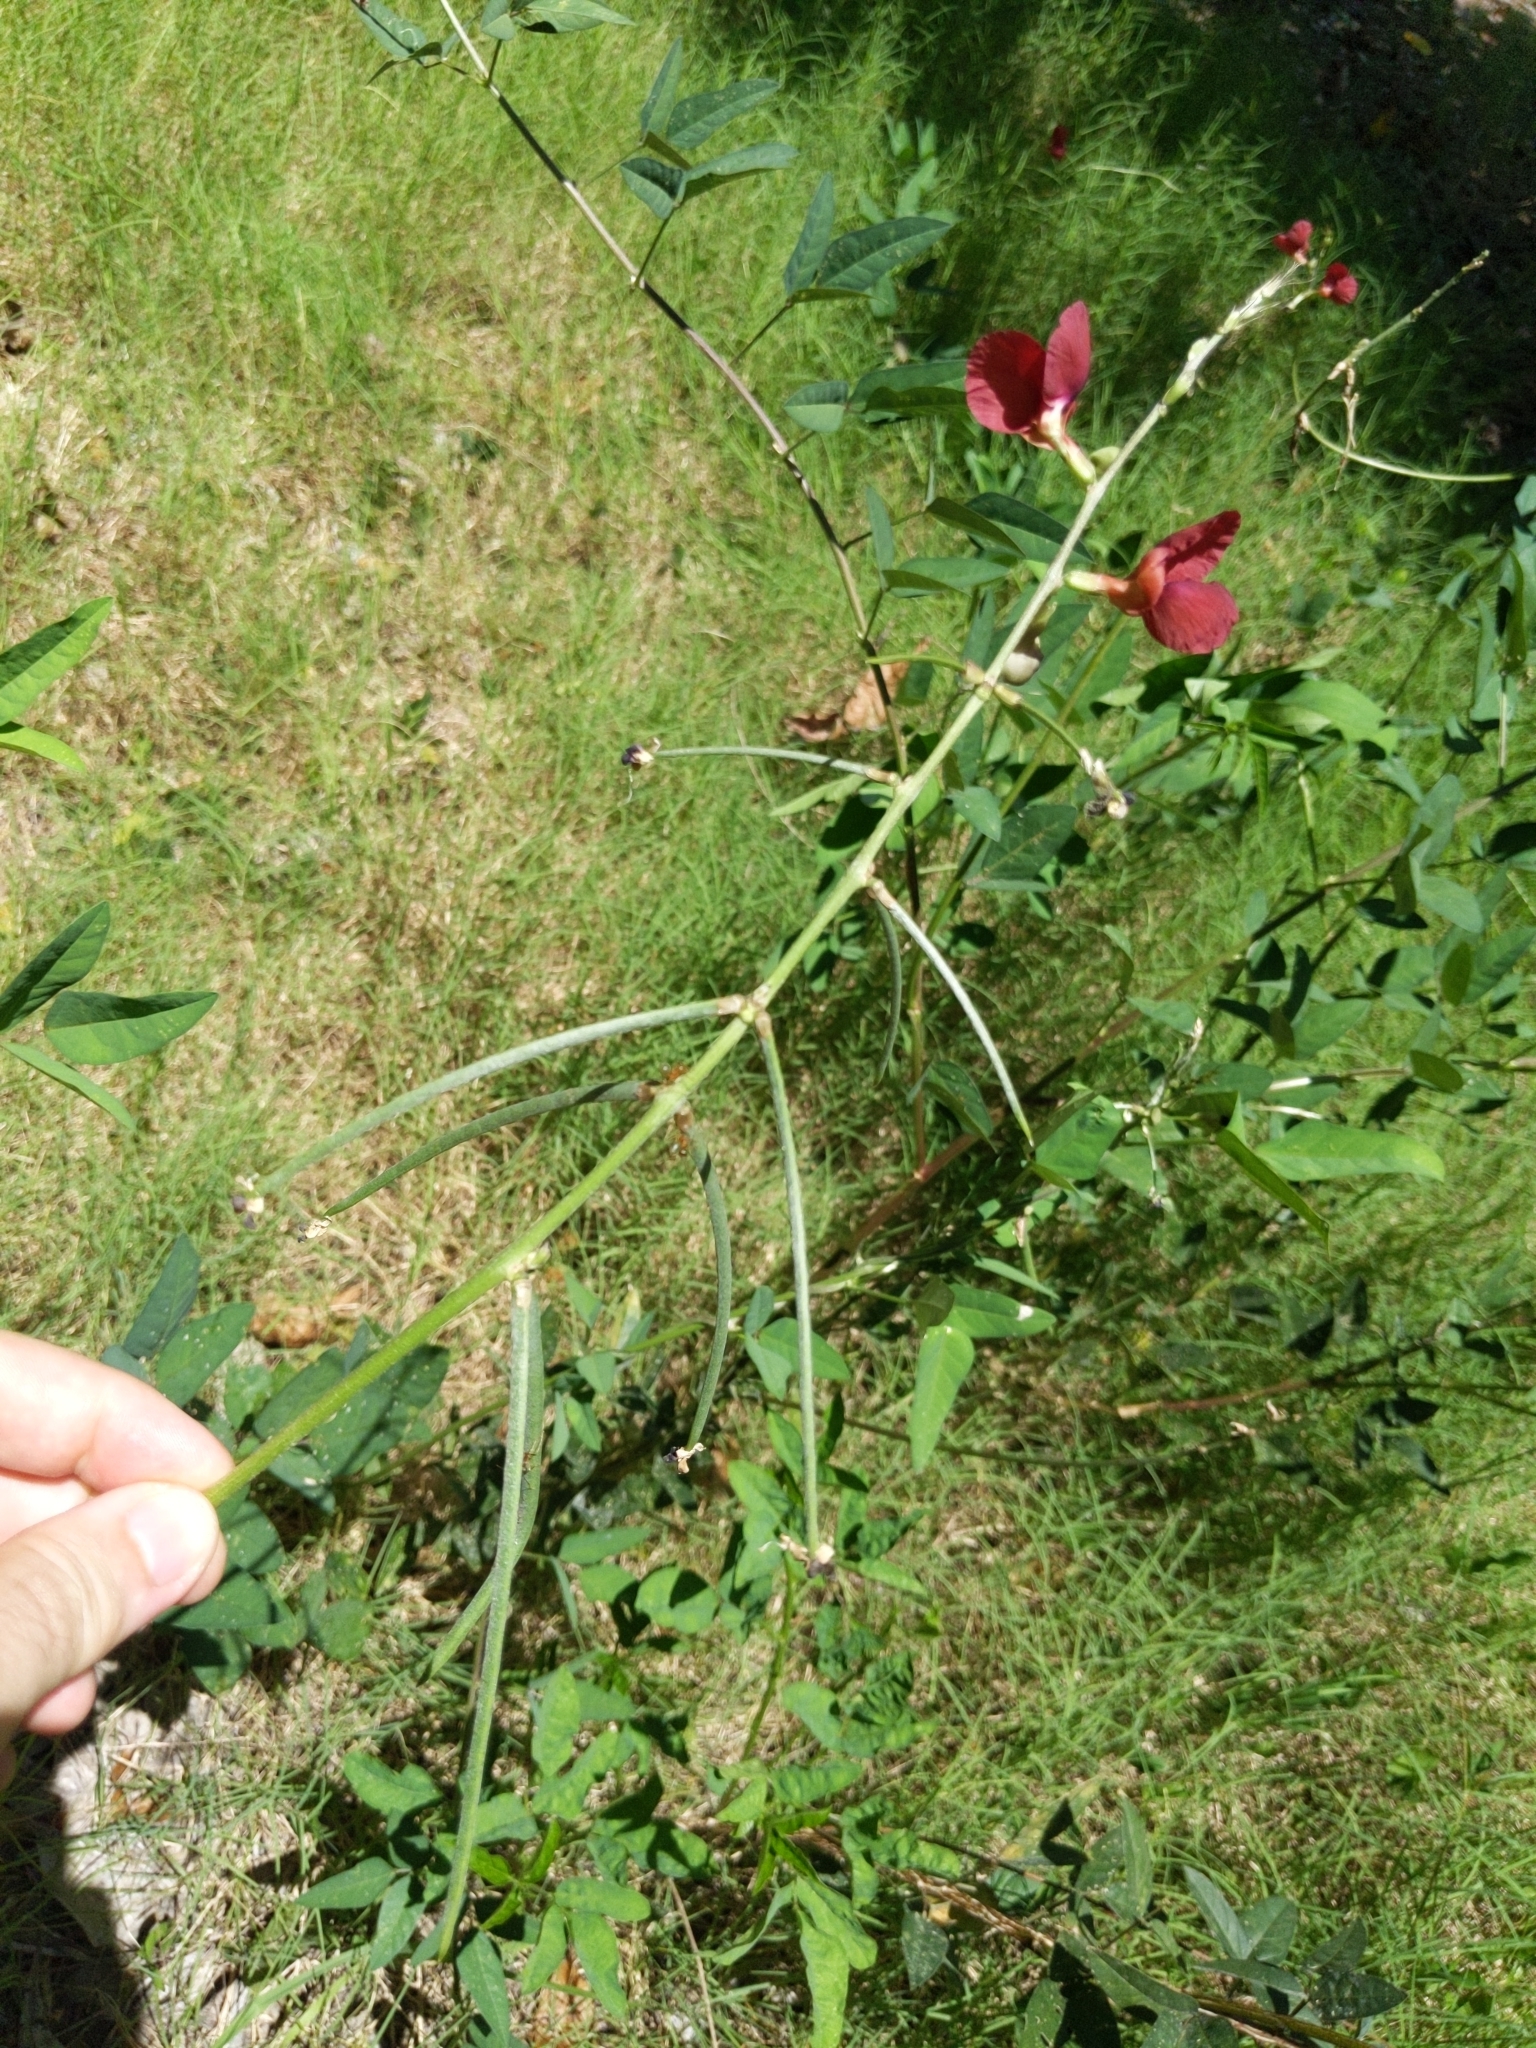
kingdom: Plantae
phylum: Tracheophyta
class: Magnoliopsida
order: Fabales
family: Fabaceae
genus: Macroptilium
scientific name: Macroptilium lathyroides
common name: Wild bushbean
